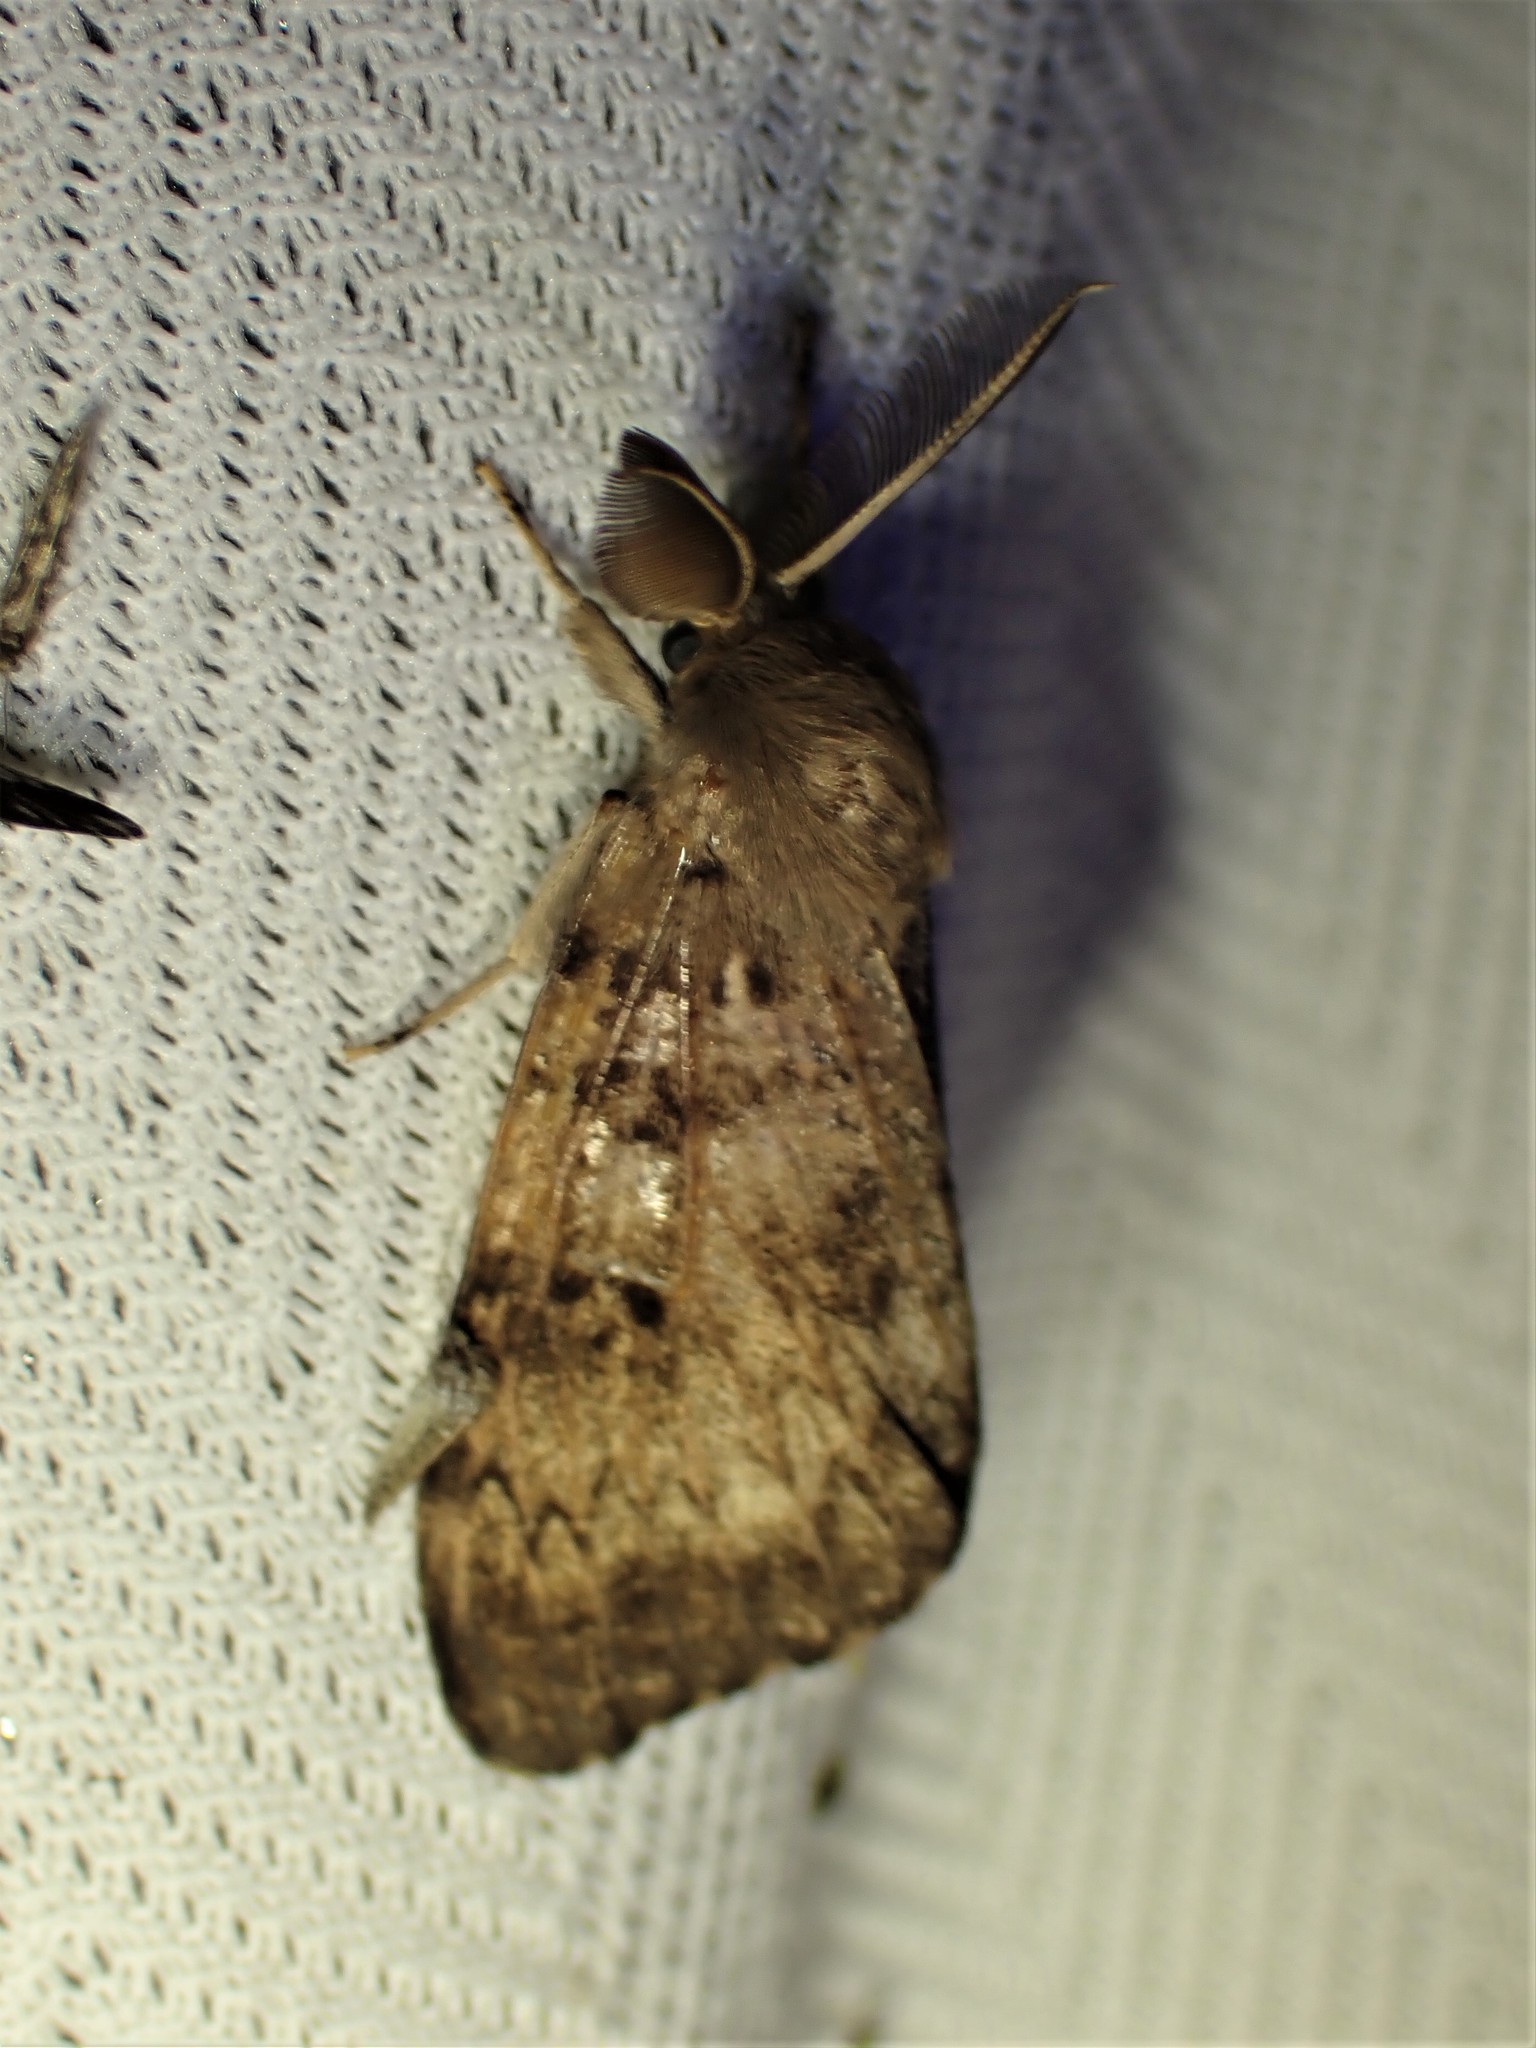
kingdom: Animalia
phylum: Arthropoda
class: Insecta
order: Lepidoptera
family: Erebidae
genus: Lymantria
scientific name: Lymantria dispar
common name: Gypsy moth
